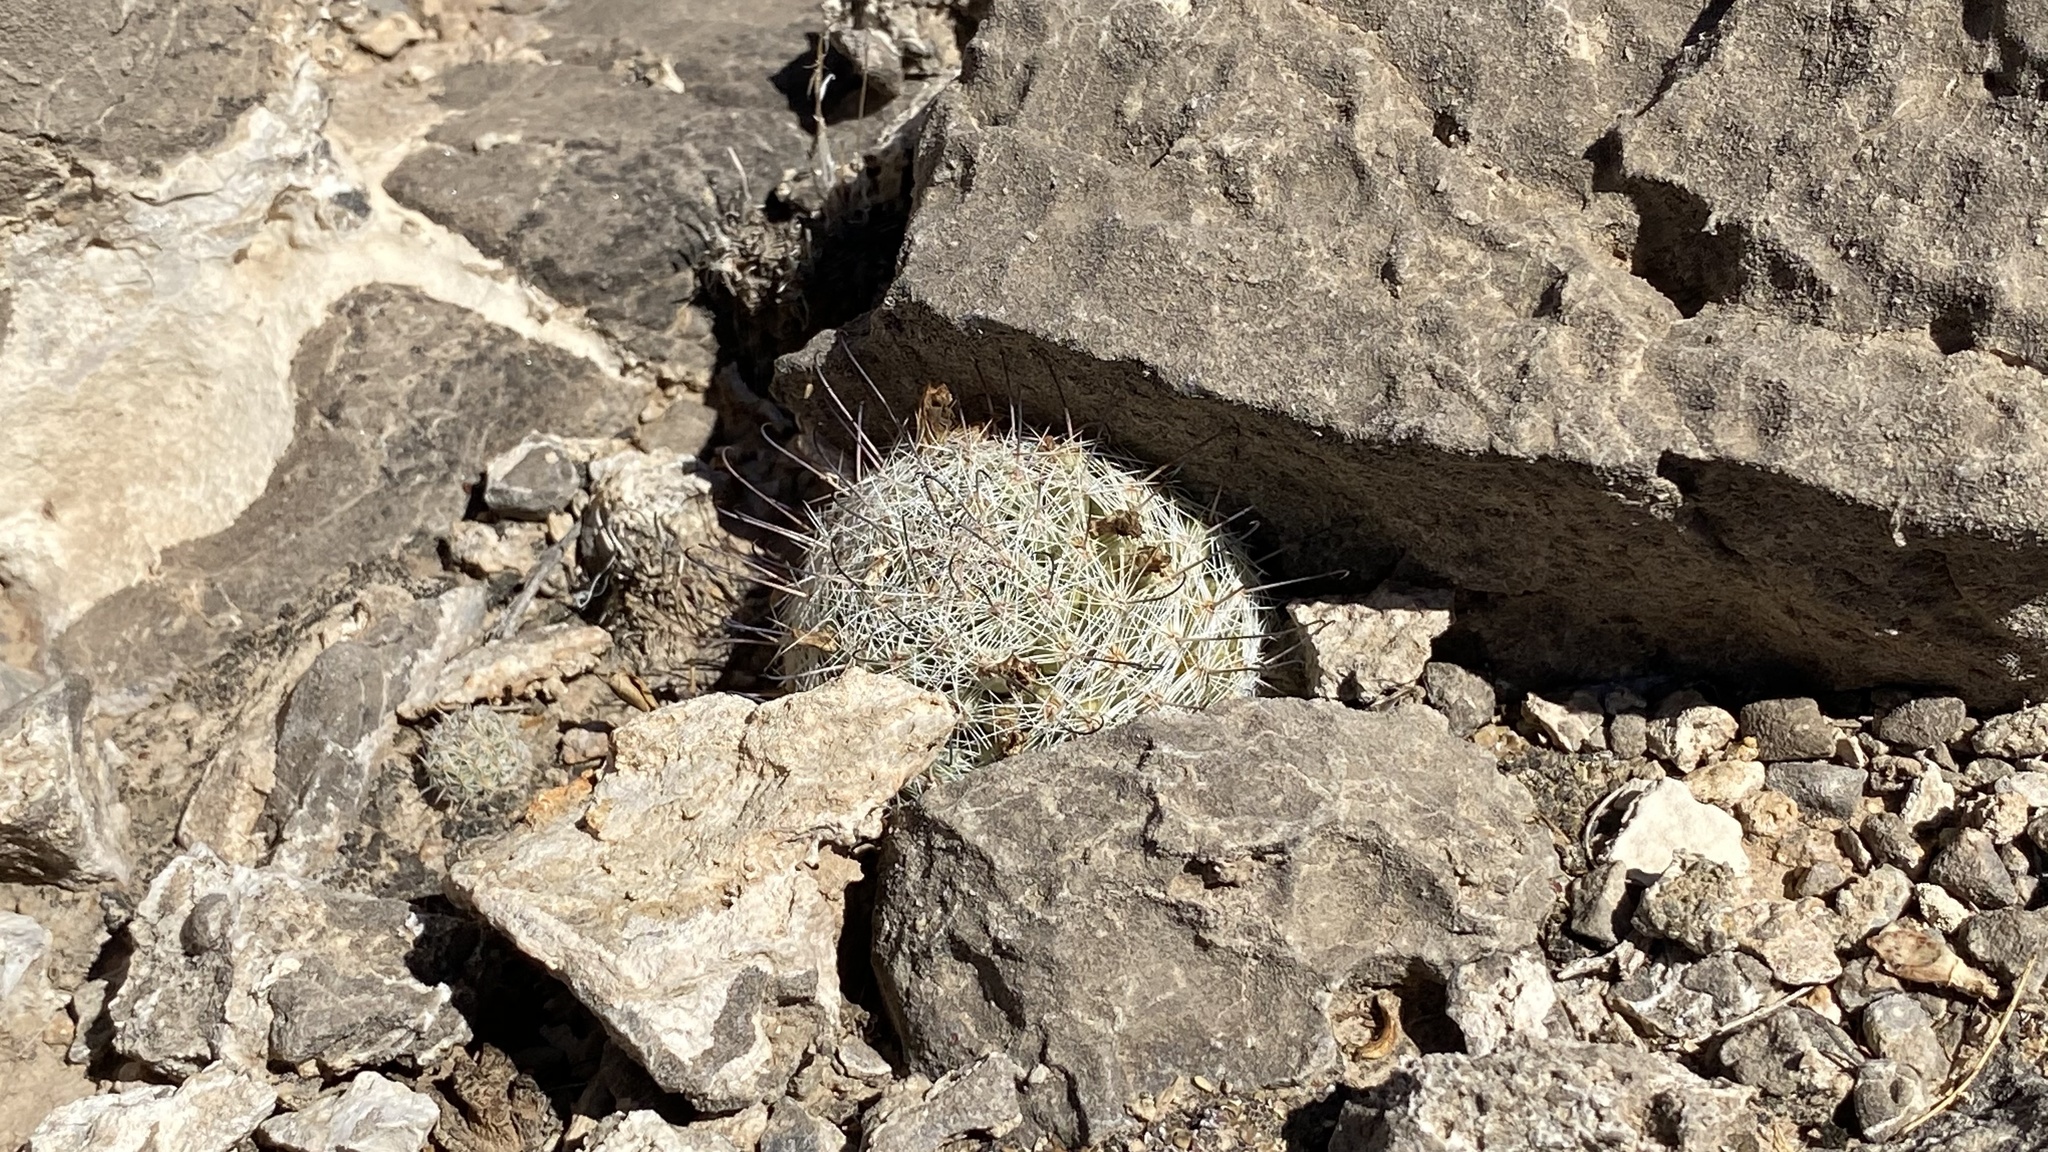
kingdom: Plantae
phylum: Tracheophyta
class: Magnoliopsida
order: Caryophyllales
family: Cactaceae
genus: Cochemiea
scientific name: Cochemiea grahamii
